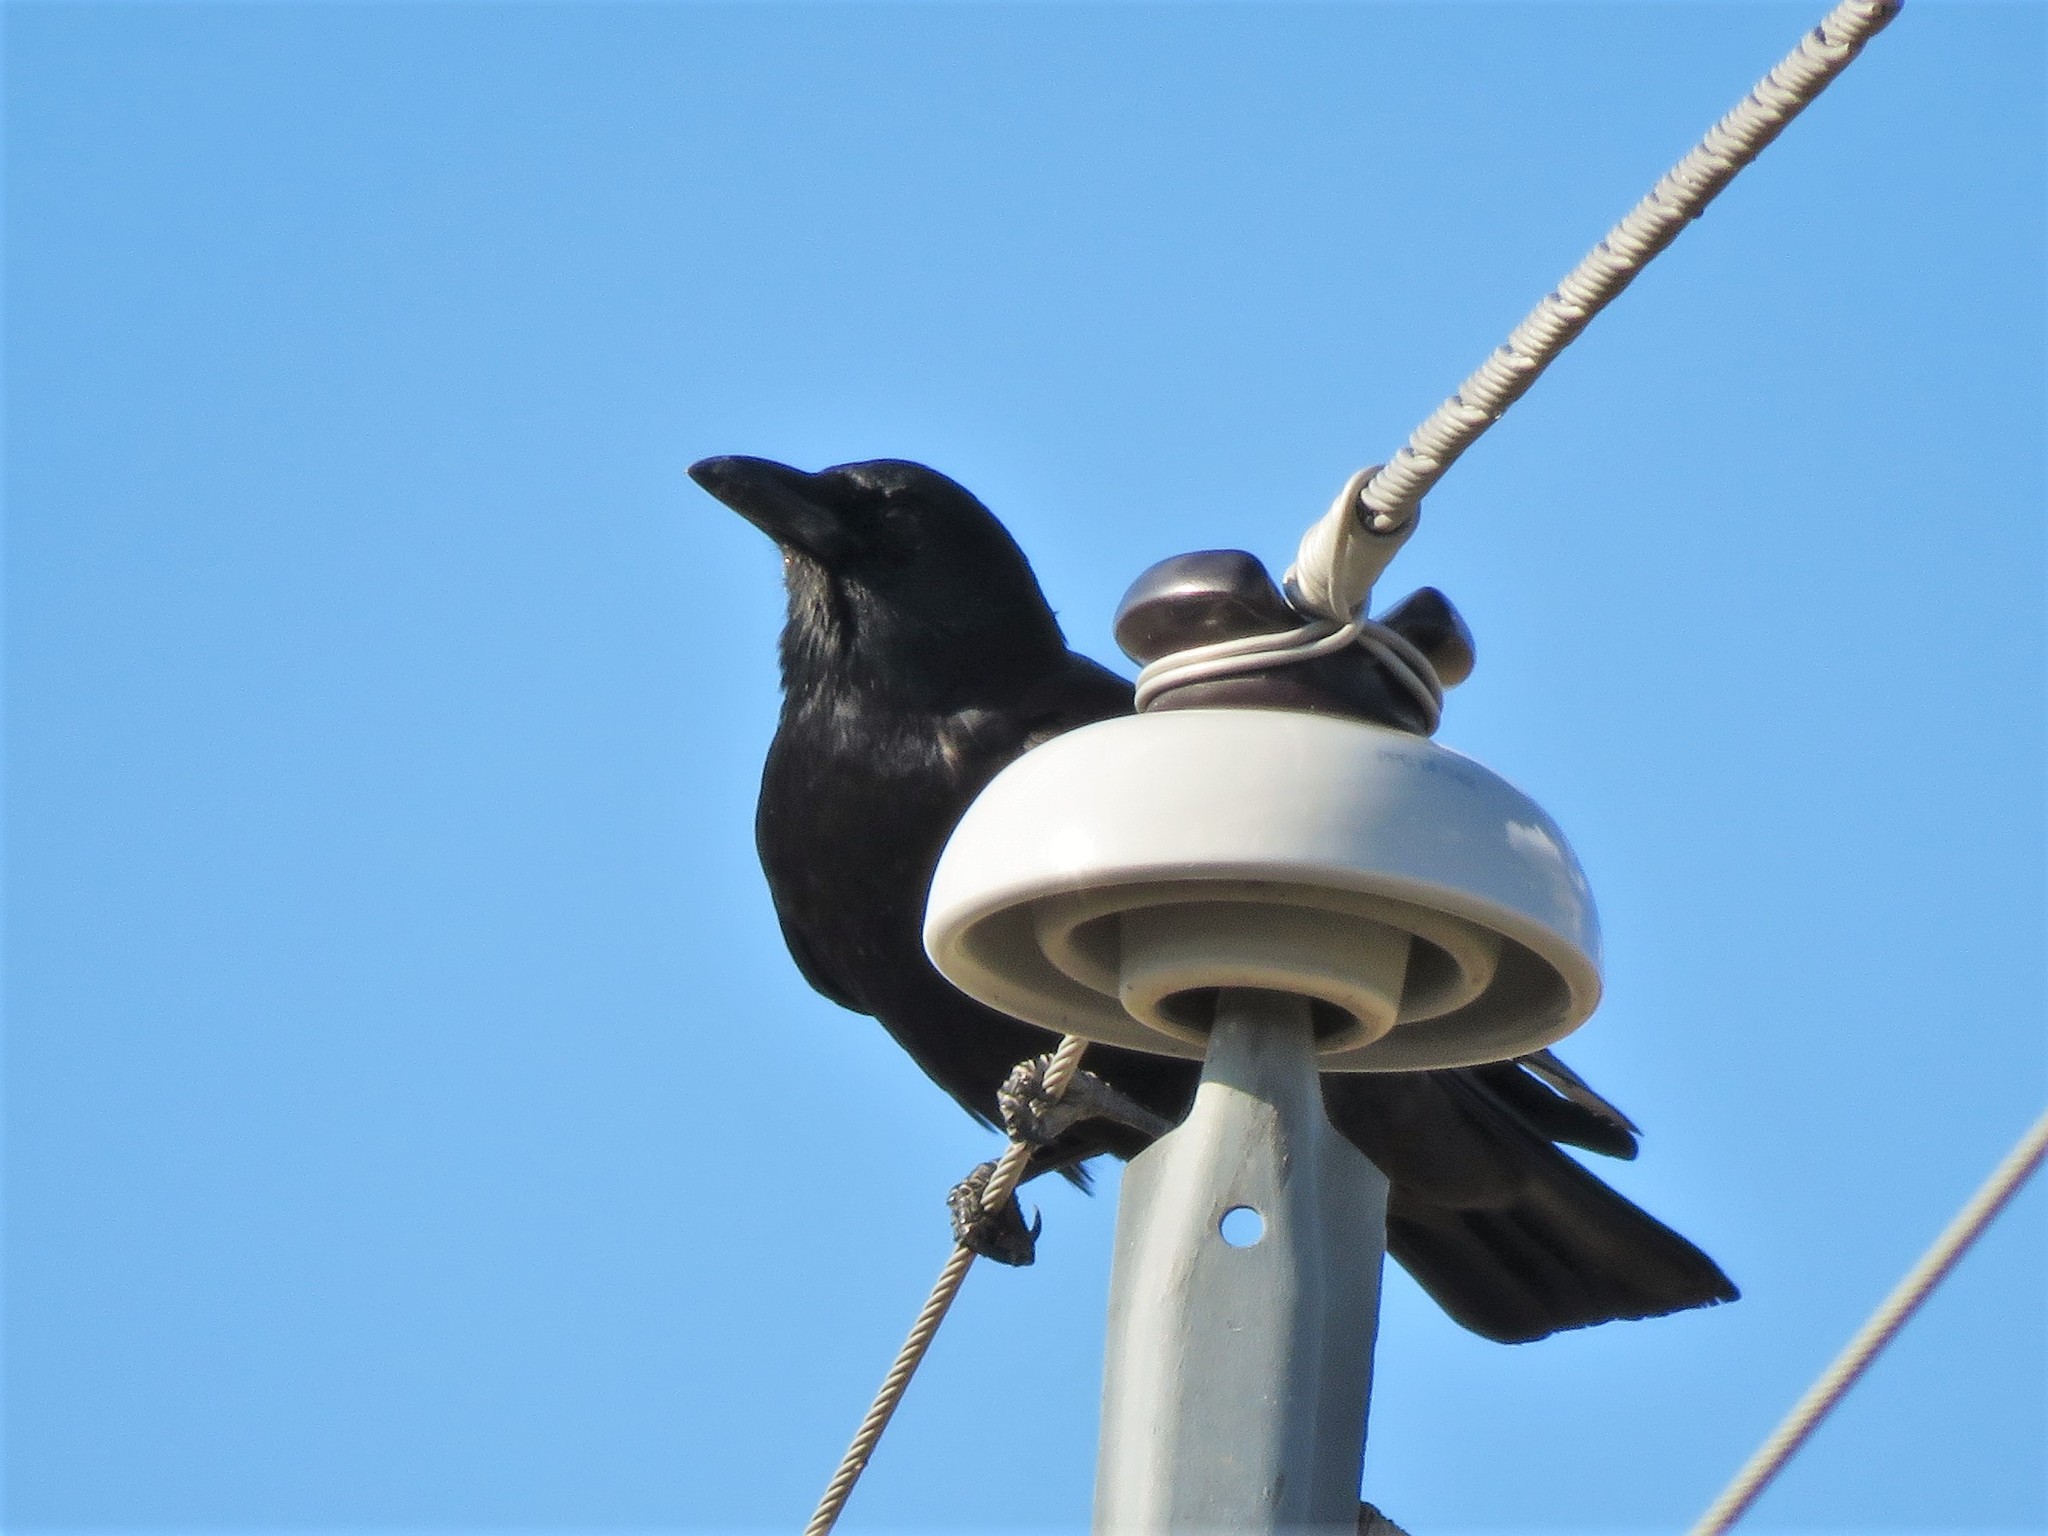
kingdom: Animalia
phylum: Chordata
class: Aves
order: Passeriformes
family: Corvidae
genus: Corvus
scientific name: Corvus brachyrhynchos
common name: American crow
